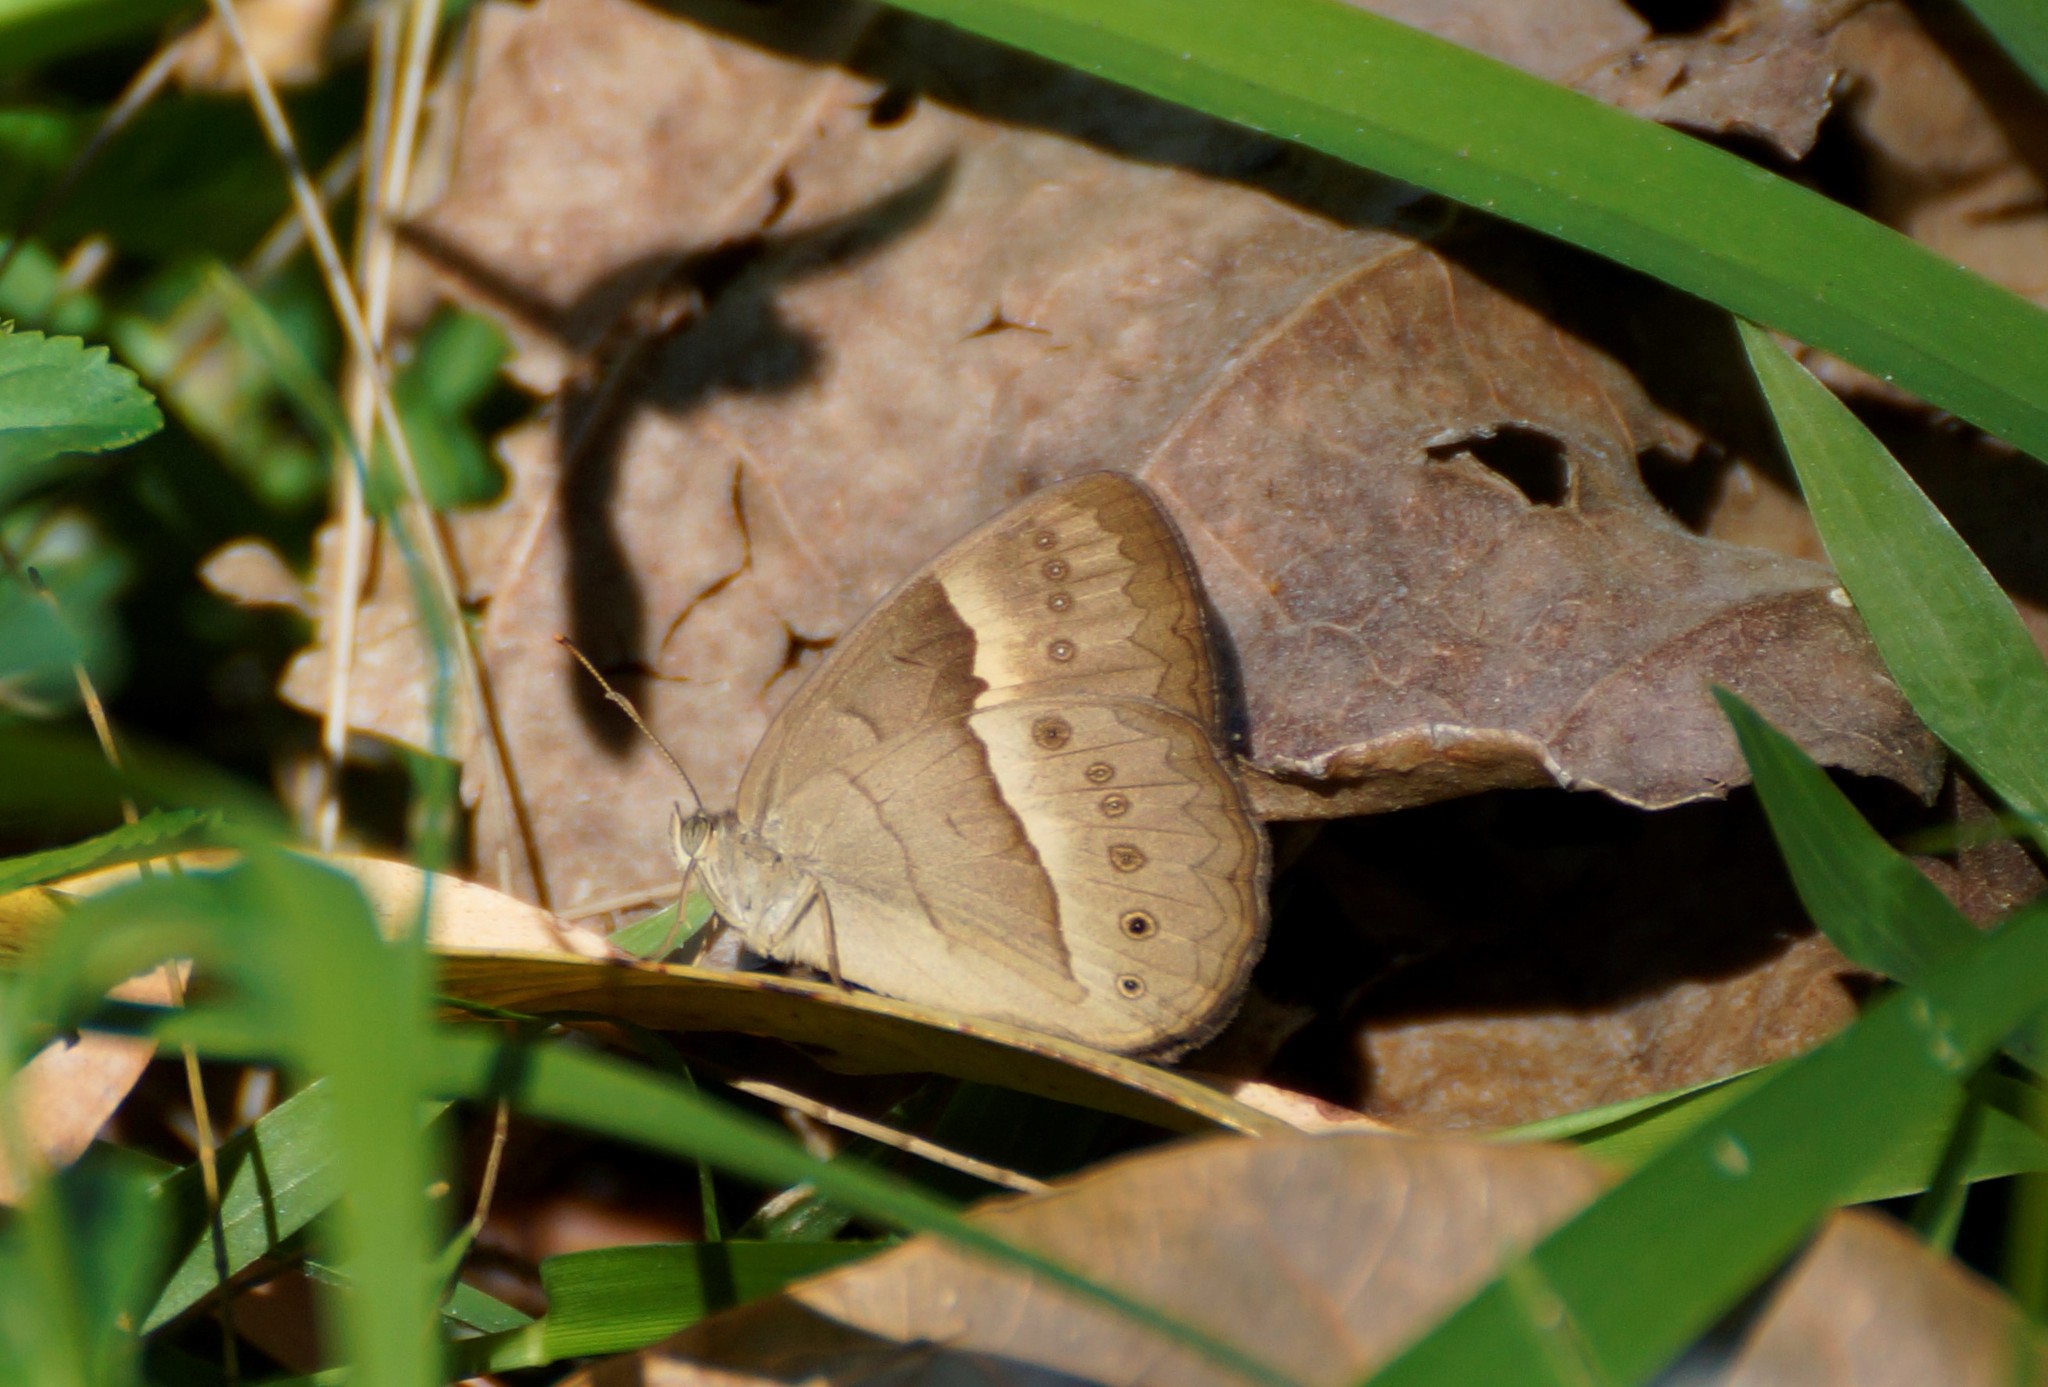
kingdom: Animalia
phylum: Arthropoda
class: Insecta
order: Lepidoptera
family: Nymphalidae
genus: Mycalesis
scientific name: Mycalesis terminus
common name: Orange bushbrown
